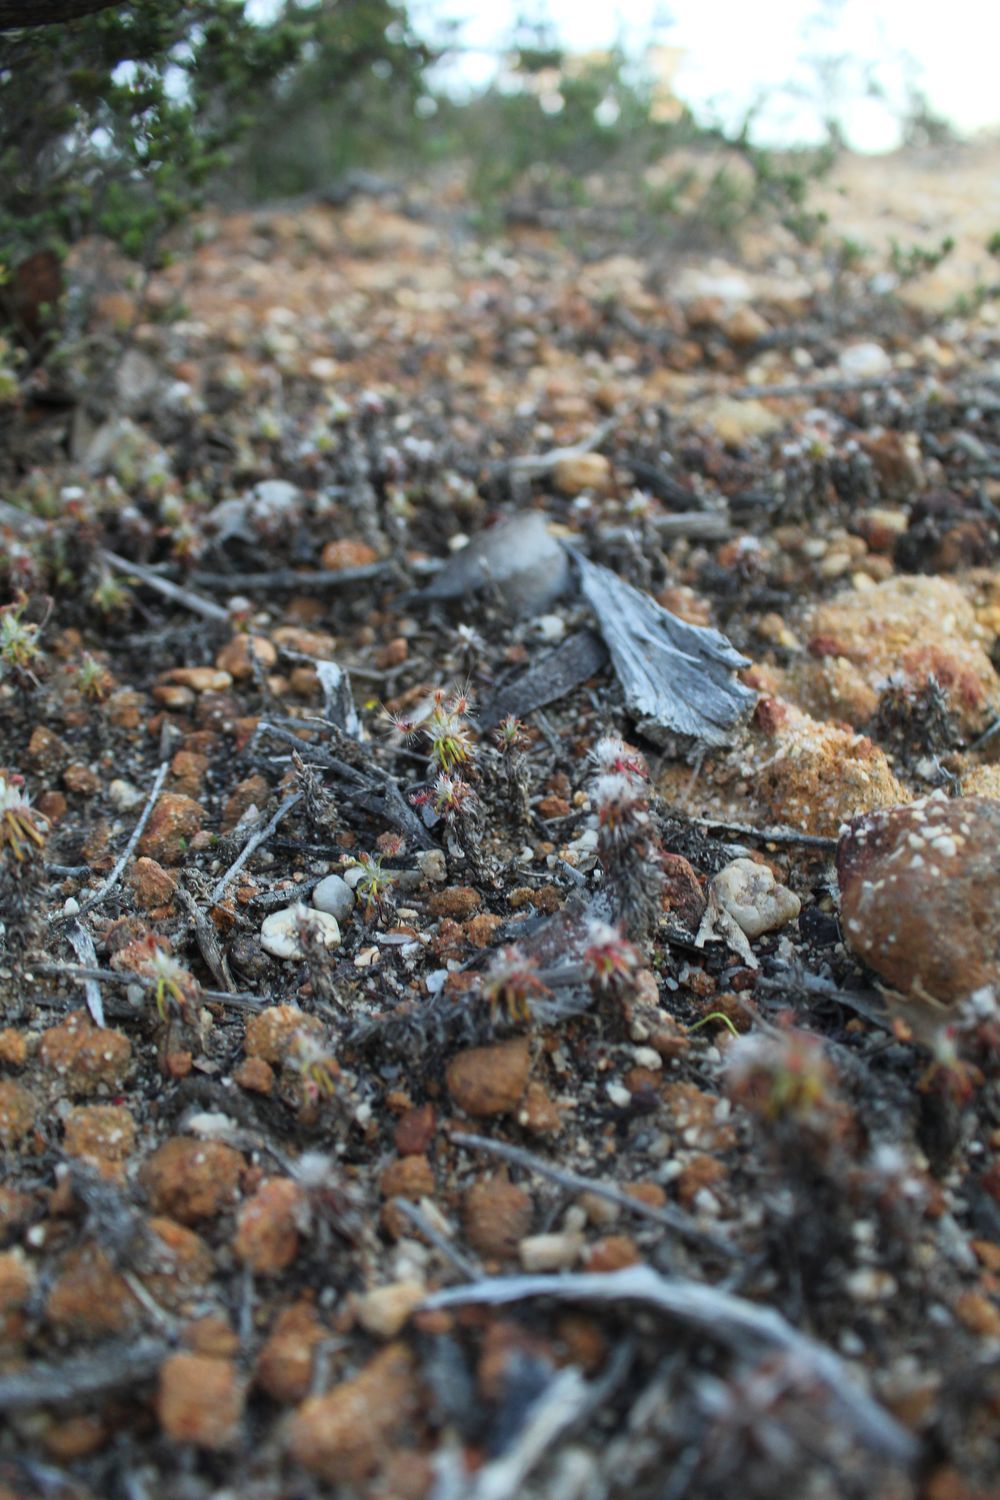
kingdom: Plantae
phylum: Tracheophyta
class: Magnoliopsida
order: Caryophyllales
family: Droseraceae
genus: Drosera
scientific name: Drosera scorpioides
